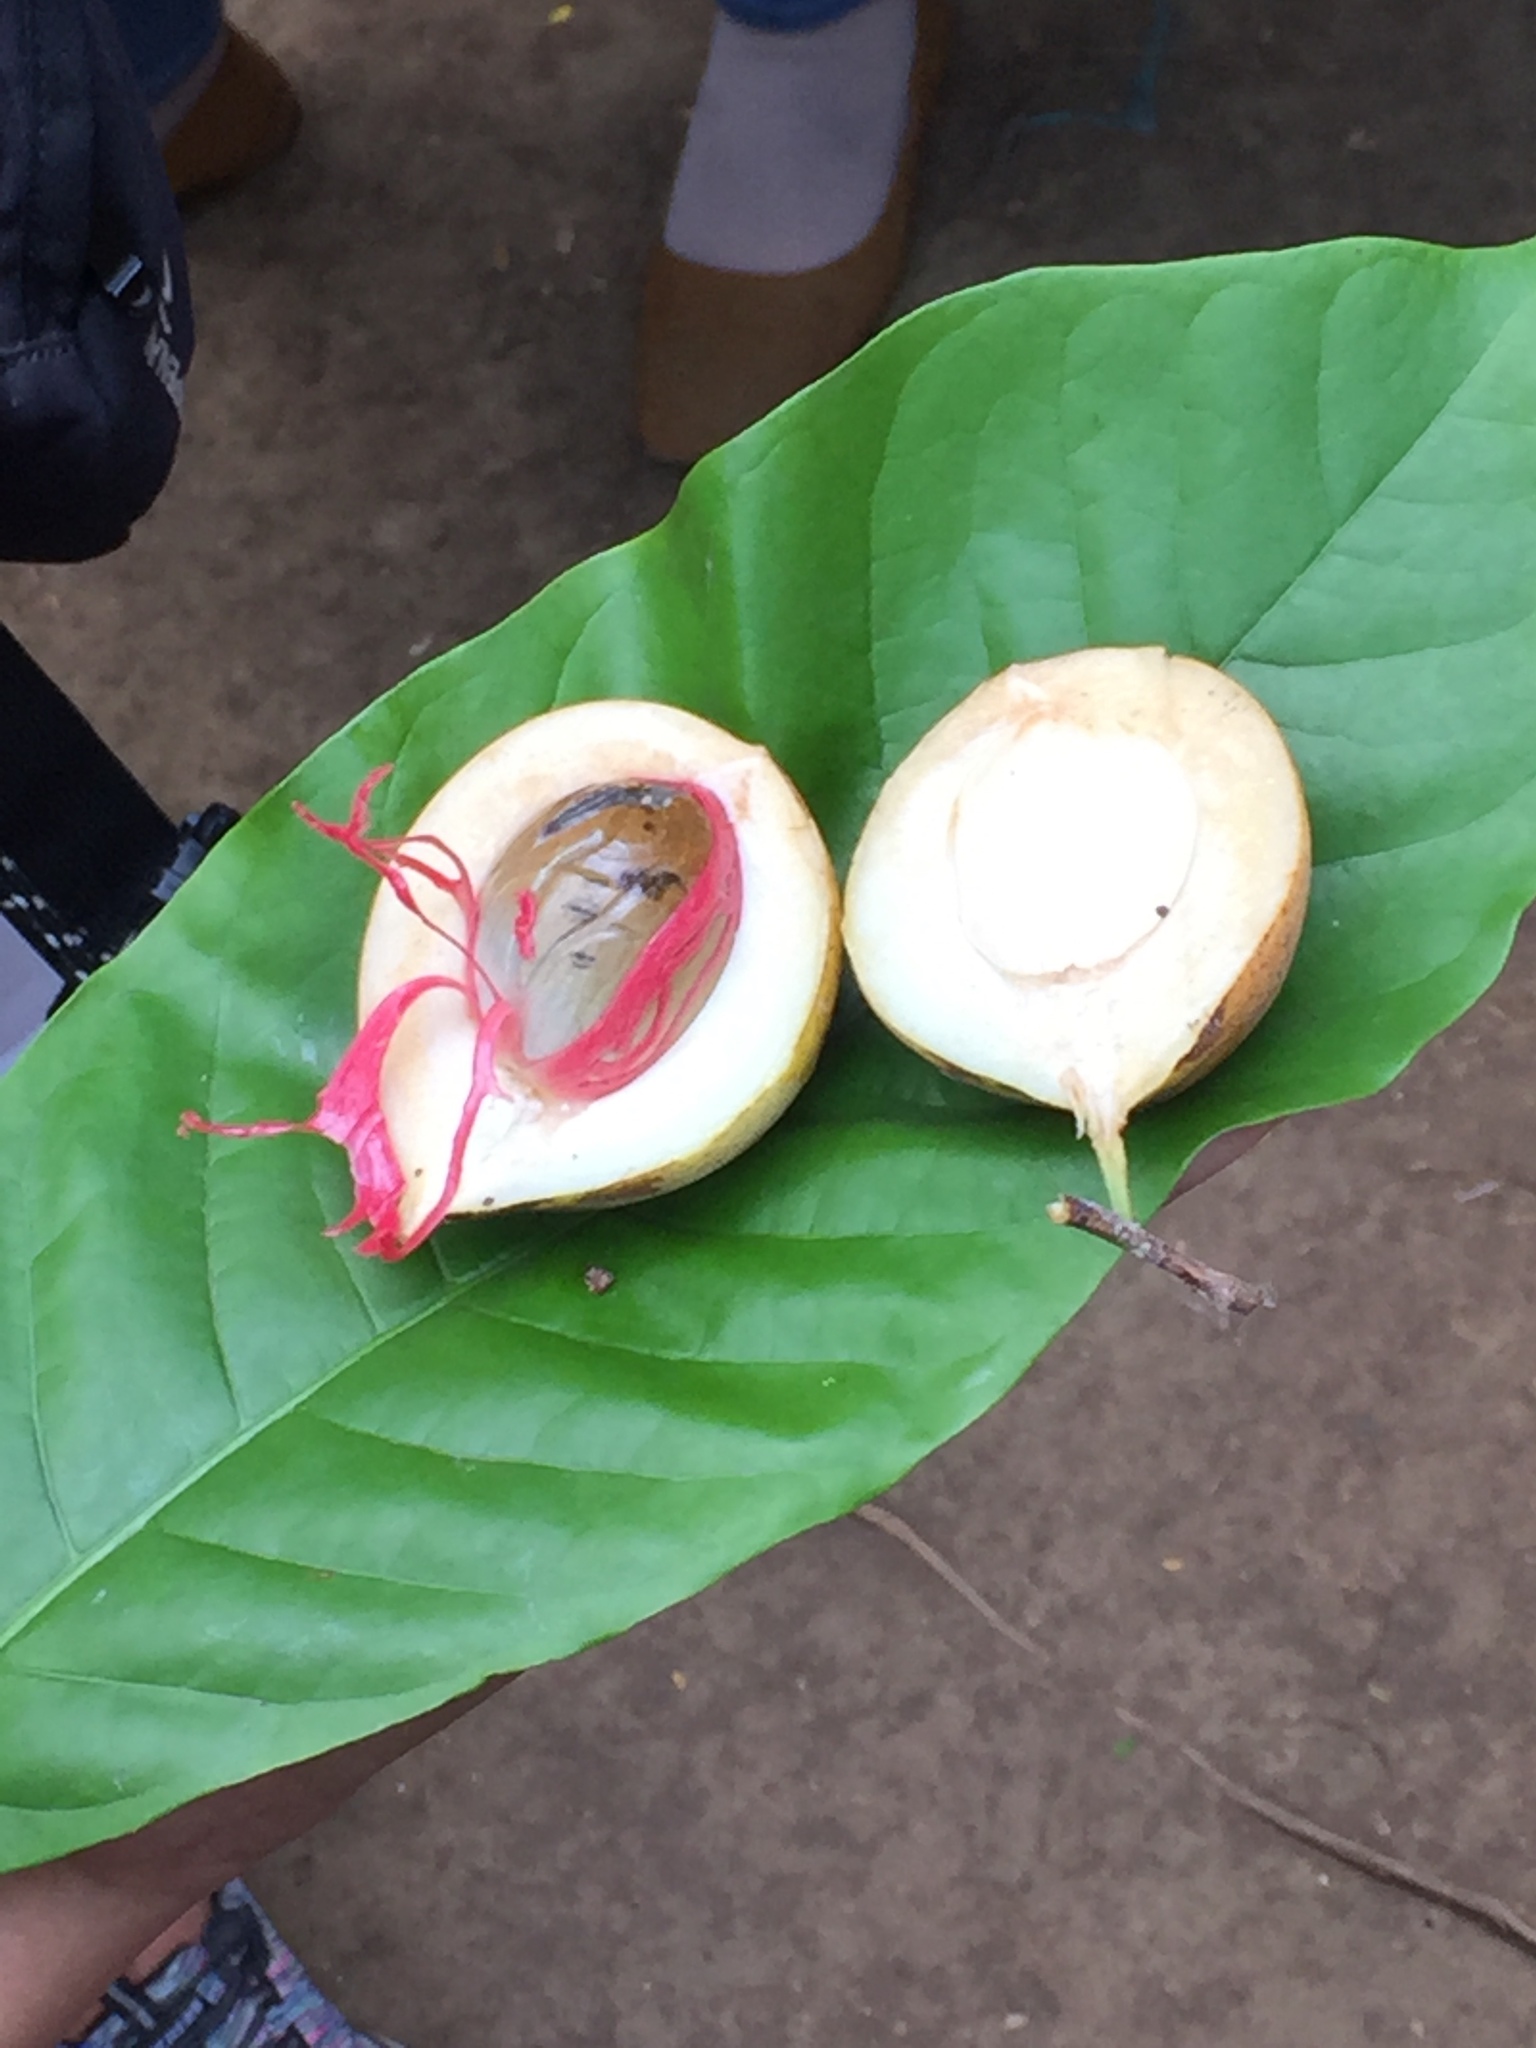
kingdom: Plantae
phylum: Tracheophyta
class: Magnoliopsida
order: Magnoliales
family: Myristicaceae
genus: Myristica
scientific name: Myristica fragrans
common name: Nutmeg
